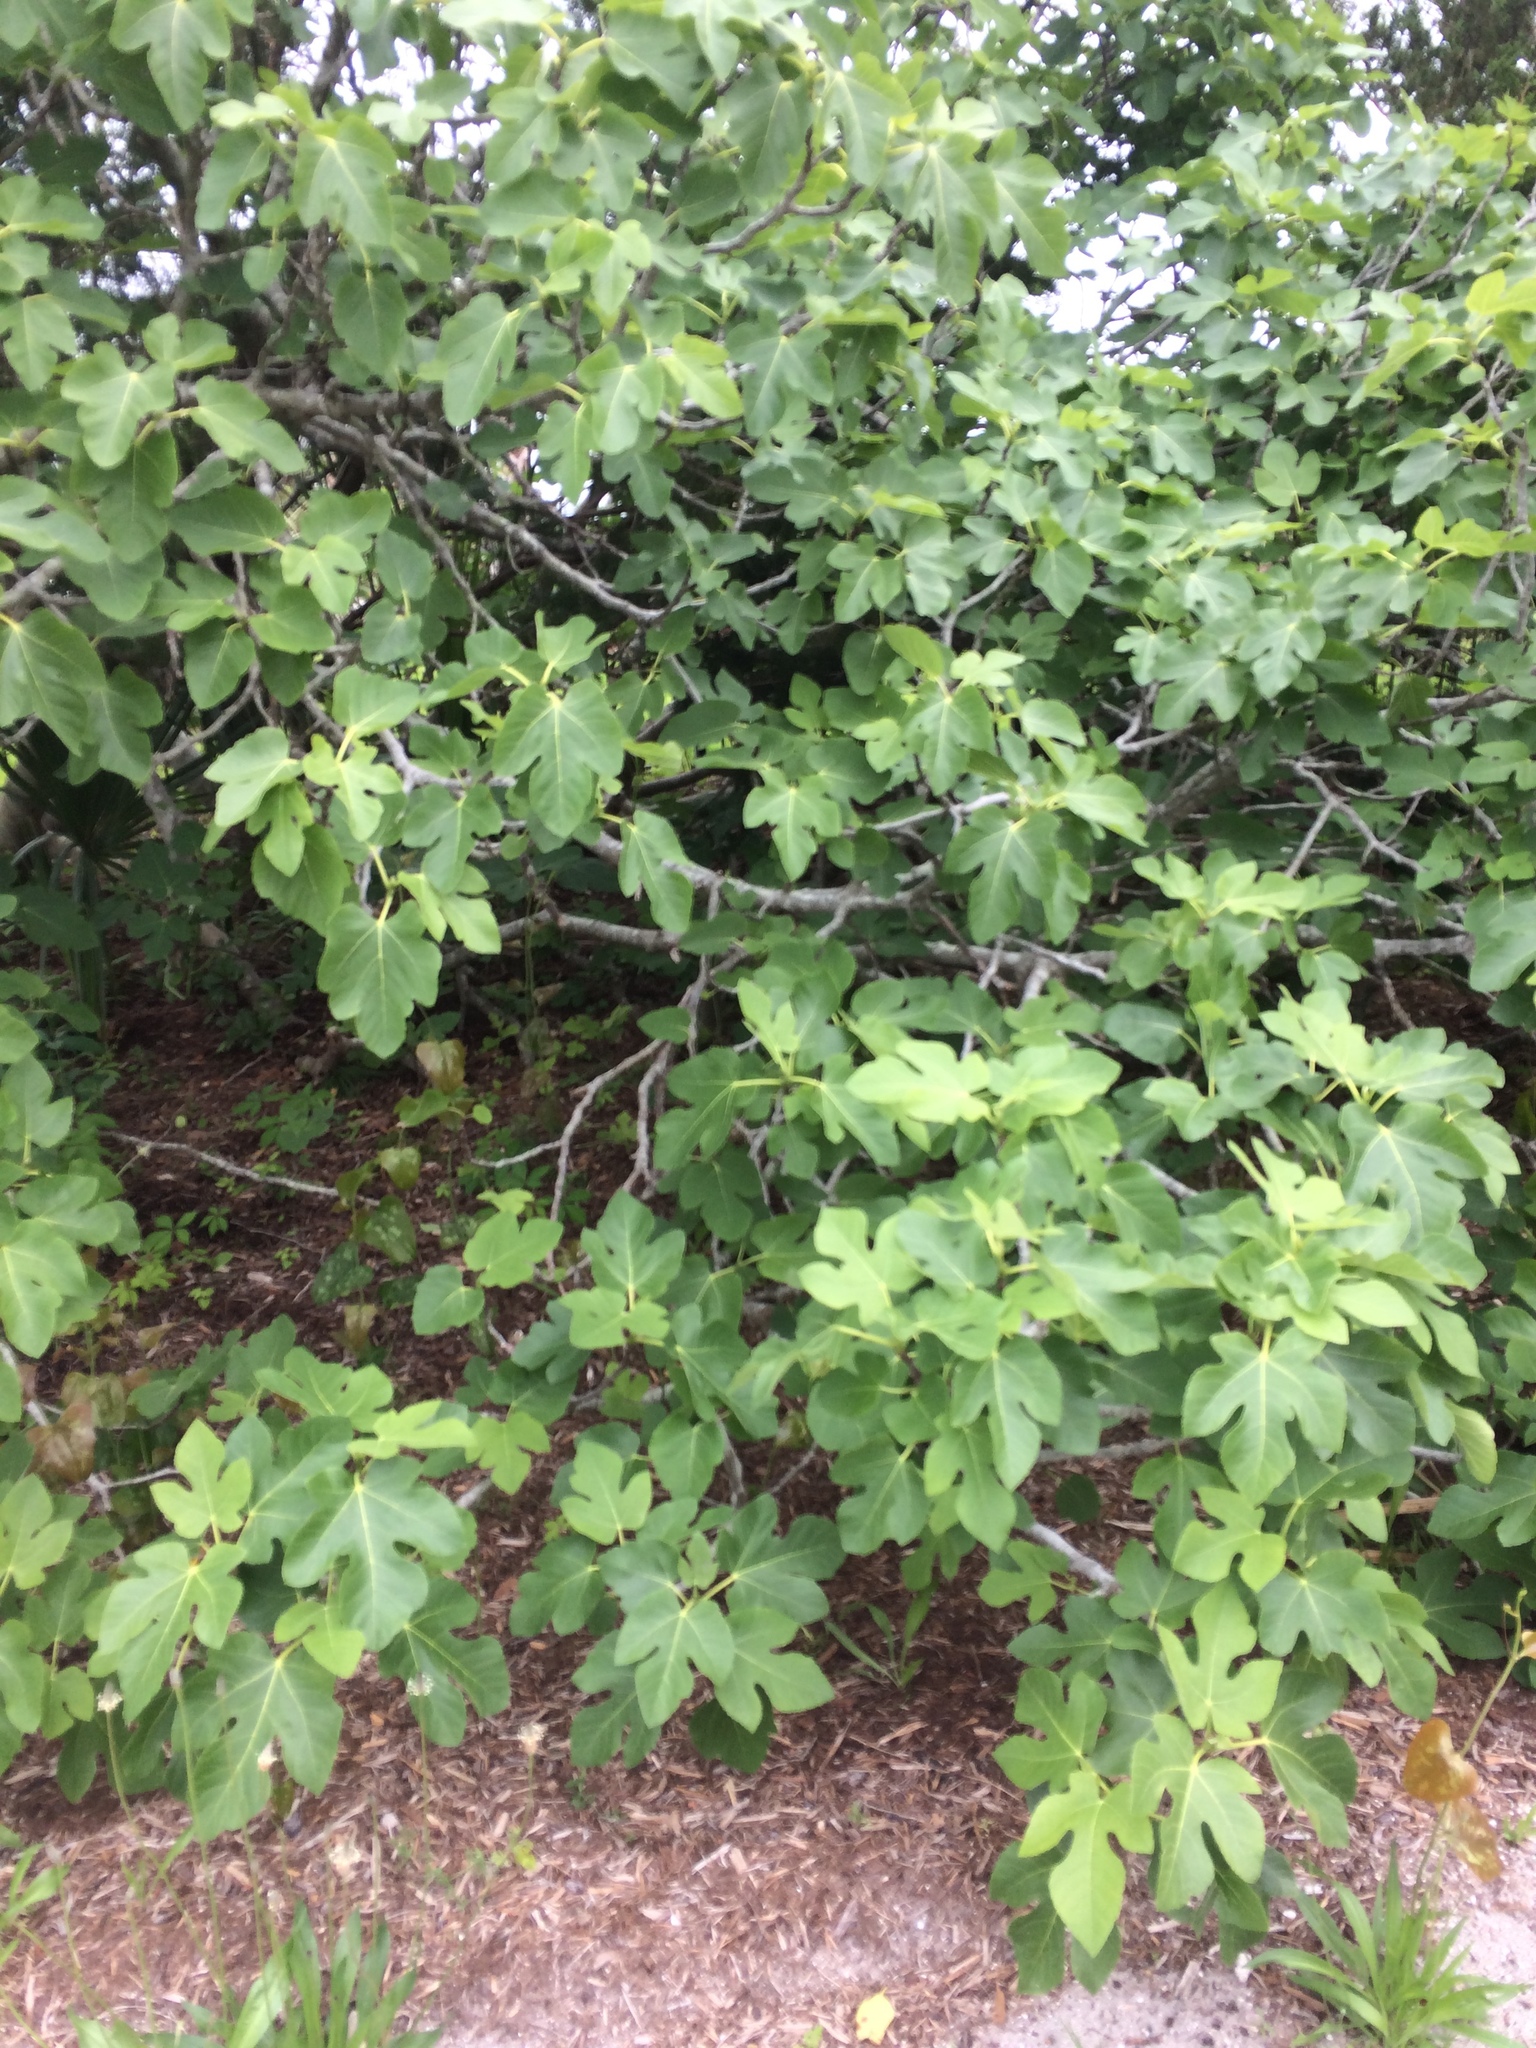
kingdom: Plantae
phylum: Tracheophyta
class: Magnoliopsida
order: Rosales
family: Moraceae
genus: Ficus
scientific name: Ficus carica
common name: Fig
